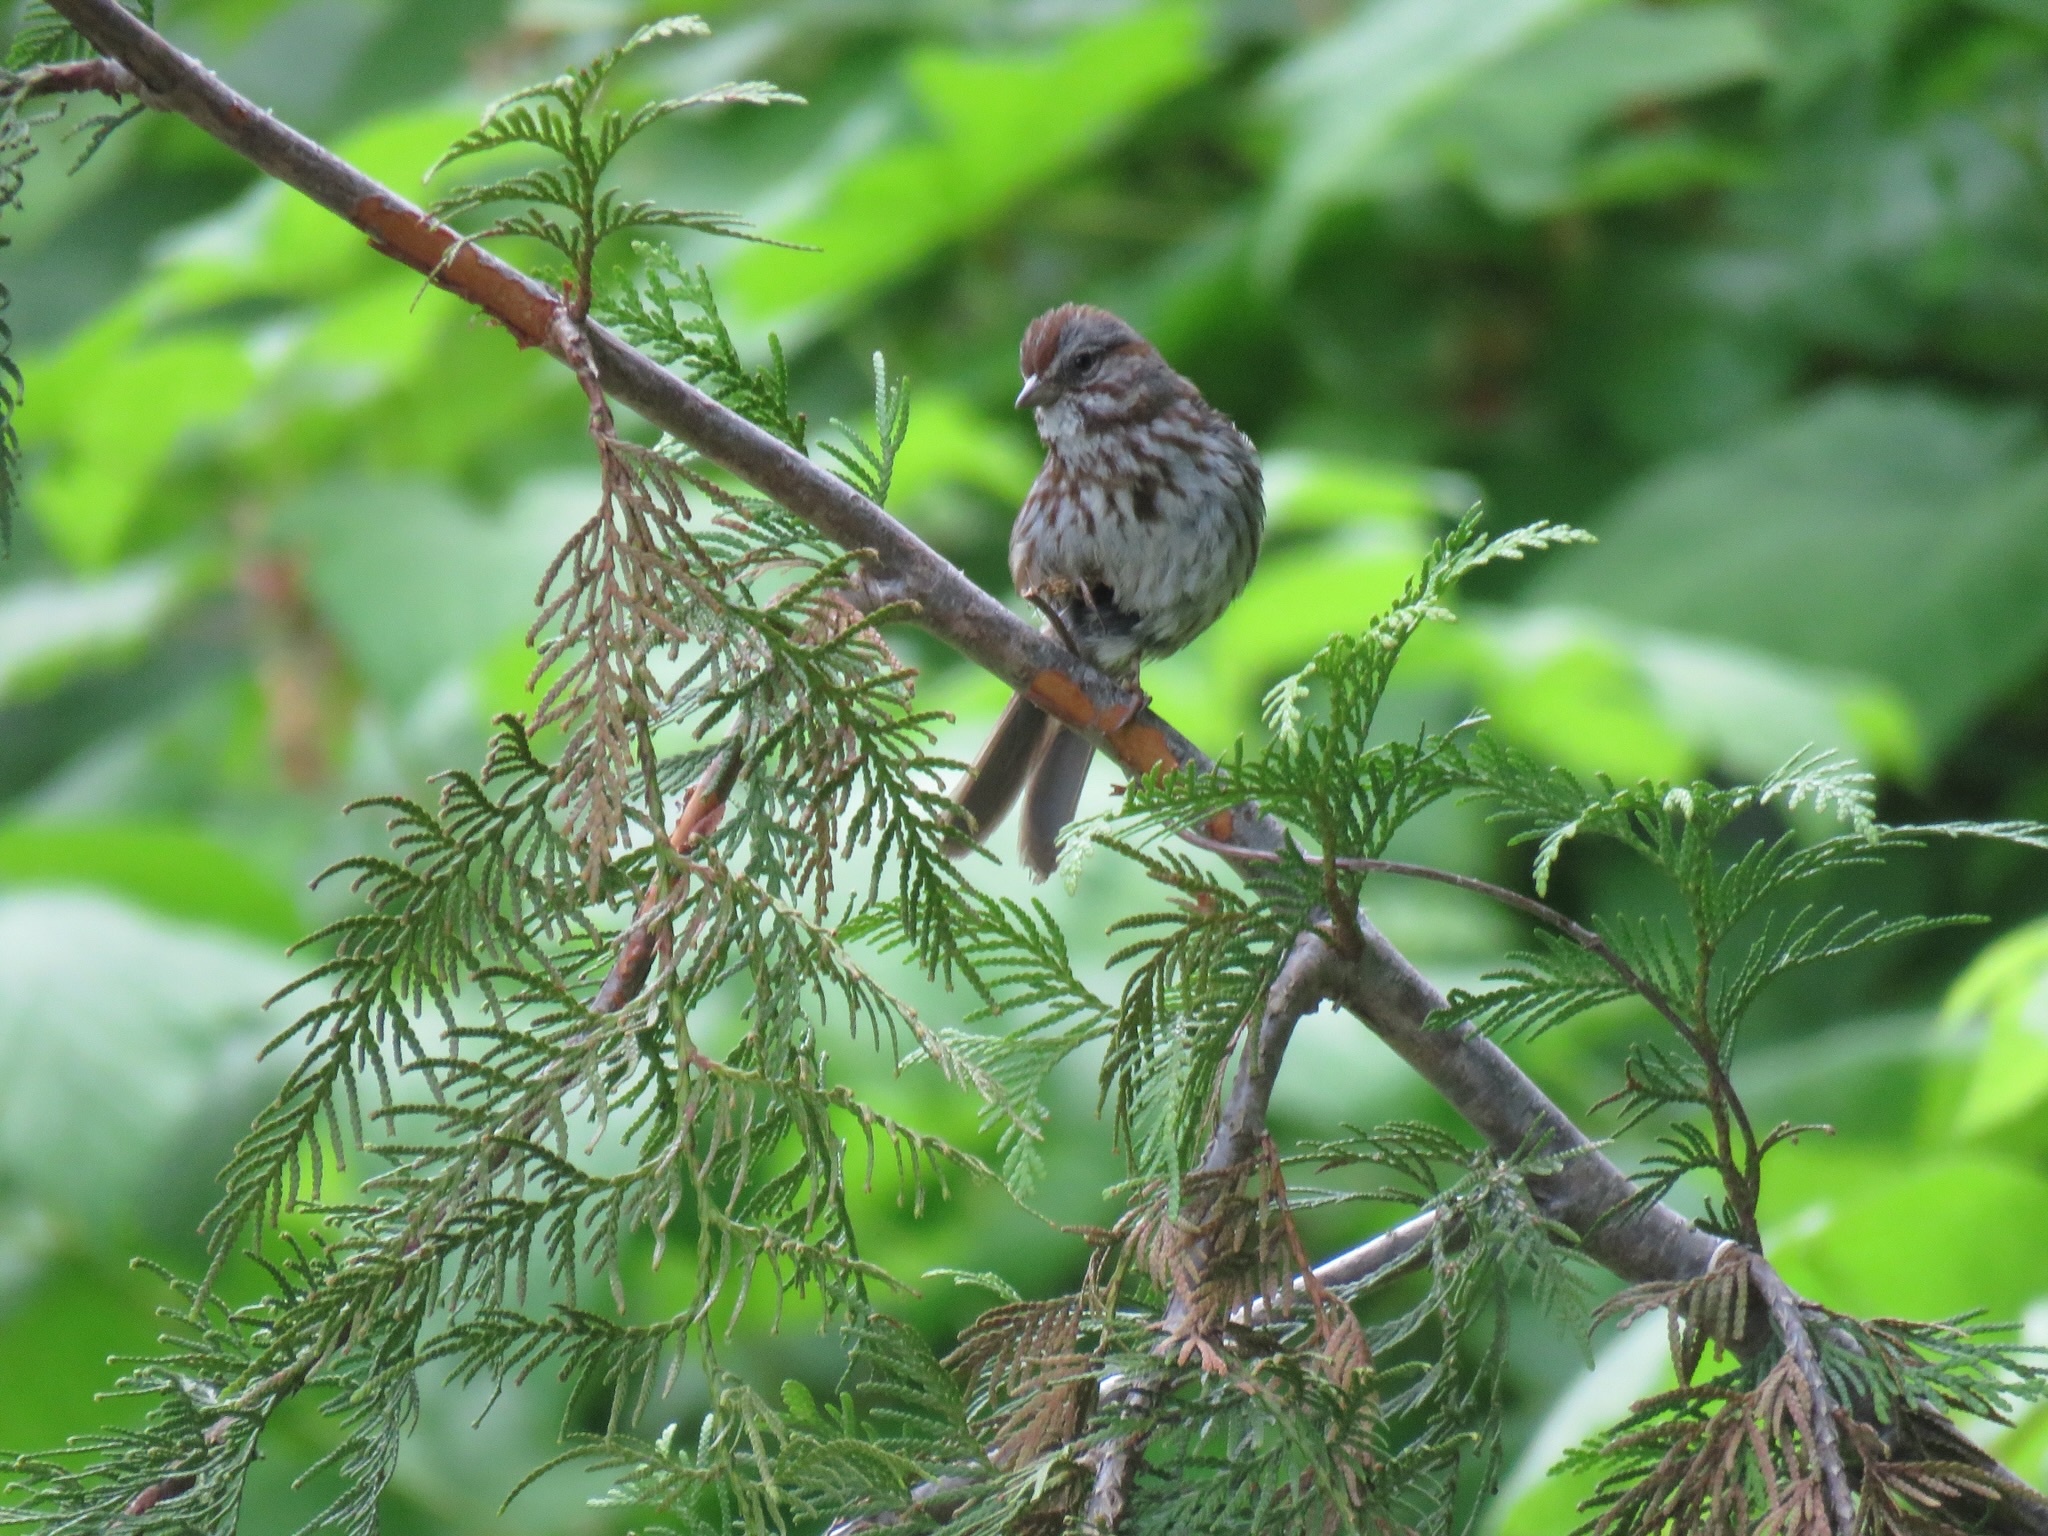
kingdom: Animalia
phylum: Chordata
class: Aves
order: Passeriformes
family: Passerellidae
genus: Melospiza
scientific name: Melospiza melodia
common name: Song sparrow
